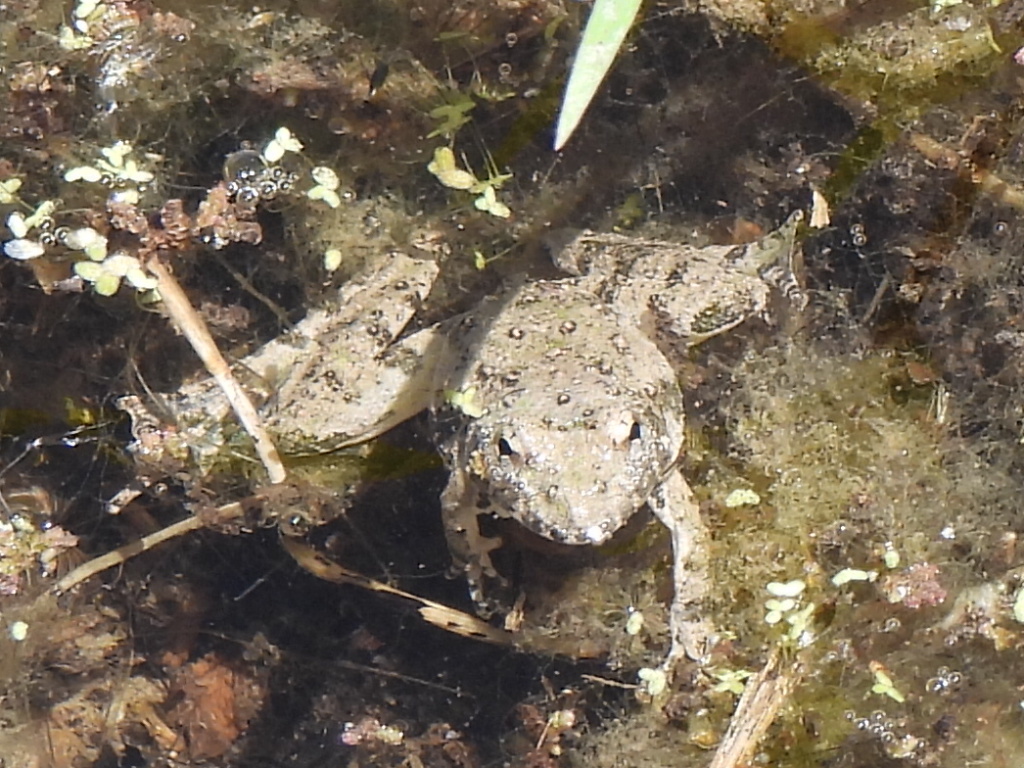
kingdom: Animalia
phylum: Chordata
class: Amphibia
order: Anura
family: Hylidae
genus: Acris
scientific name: Acris blanchardi
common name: Blanchard's cricket frog
